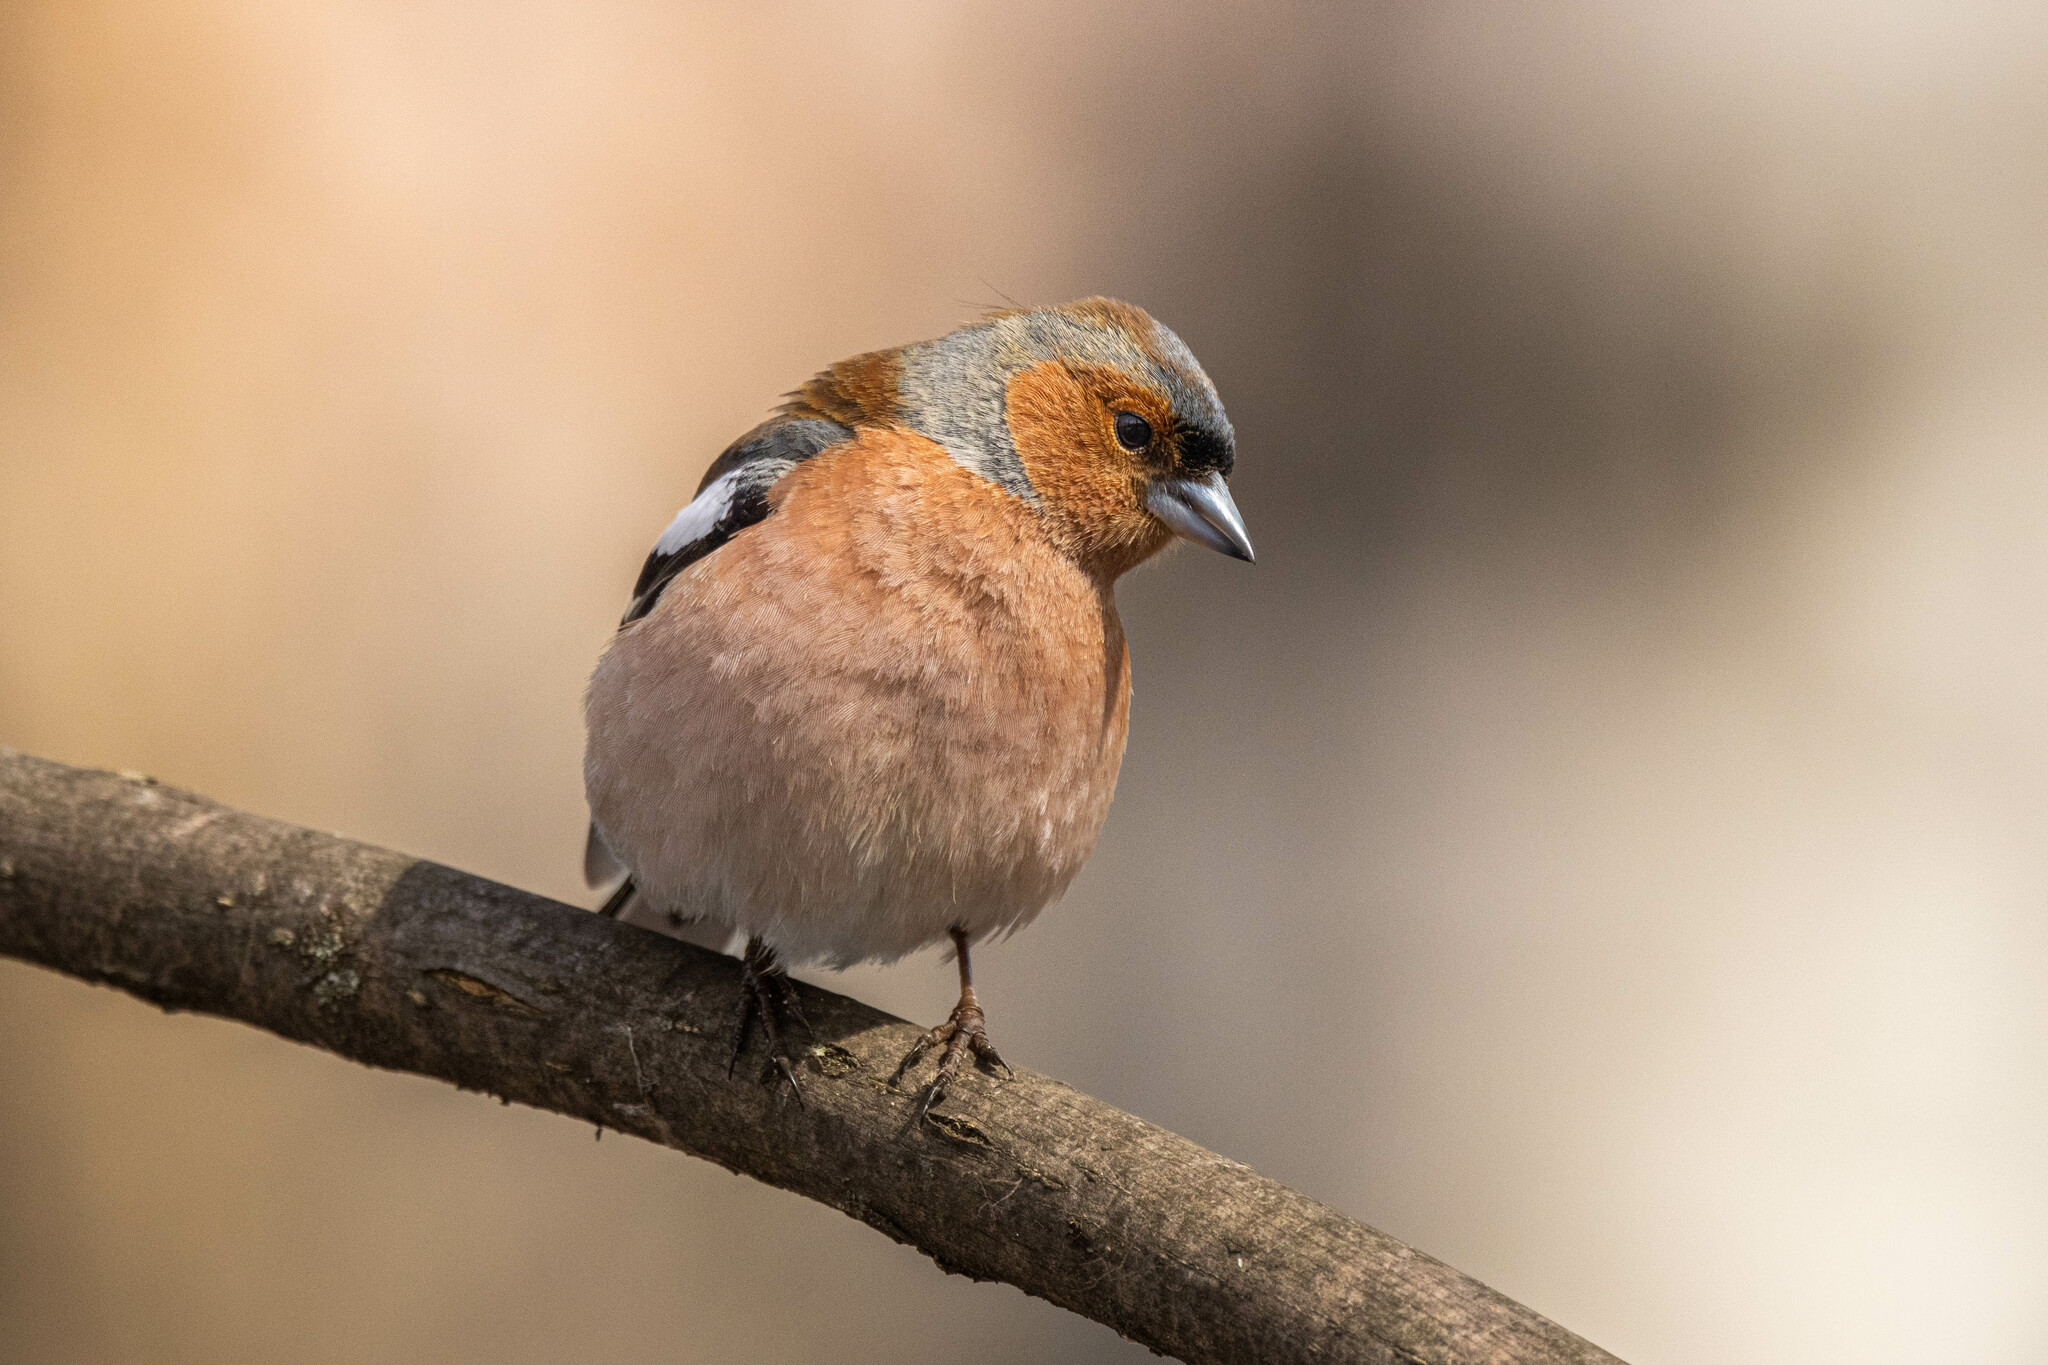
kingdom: Animalia
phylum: Chordata
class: Aves
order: Passeriformes
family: Fringillidae
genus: Fringilla
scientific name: Fringilla coelebs
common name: Common chaffinch
